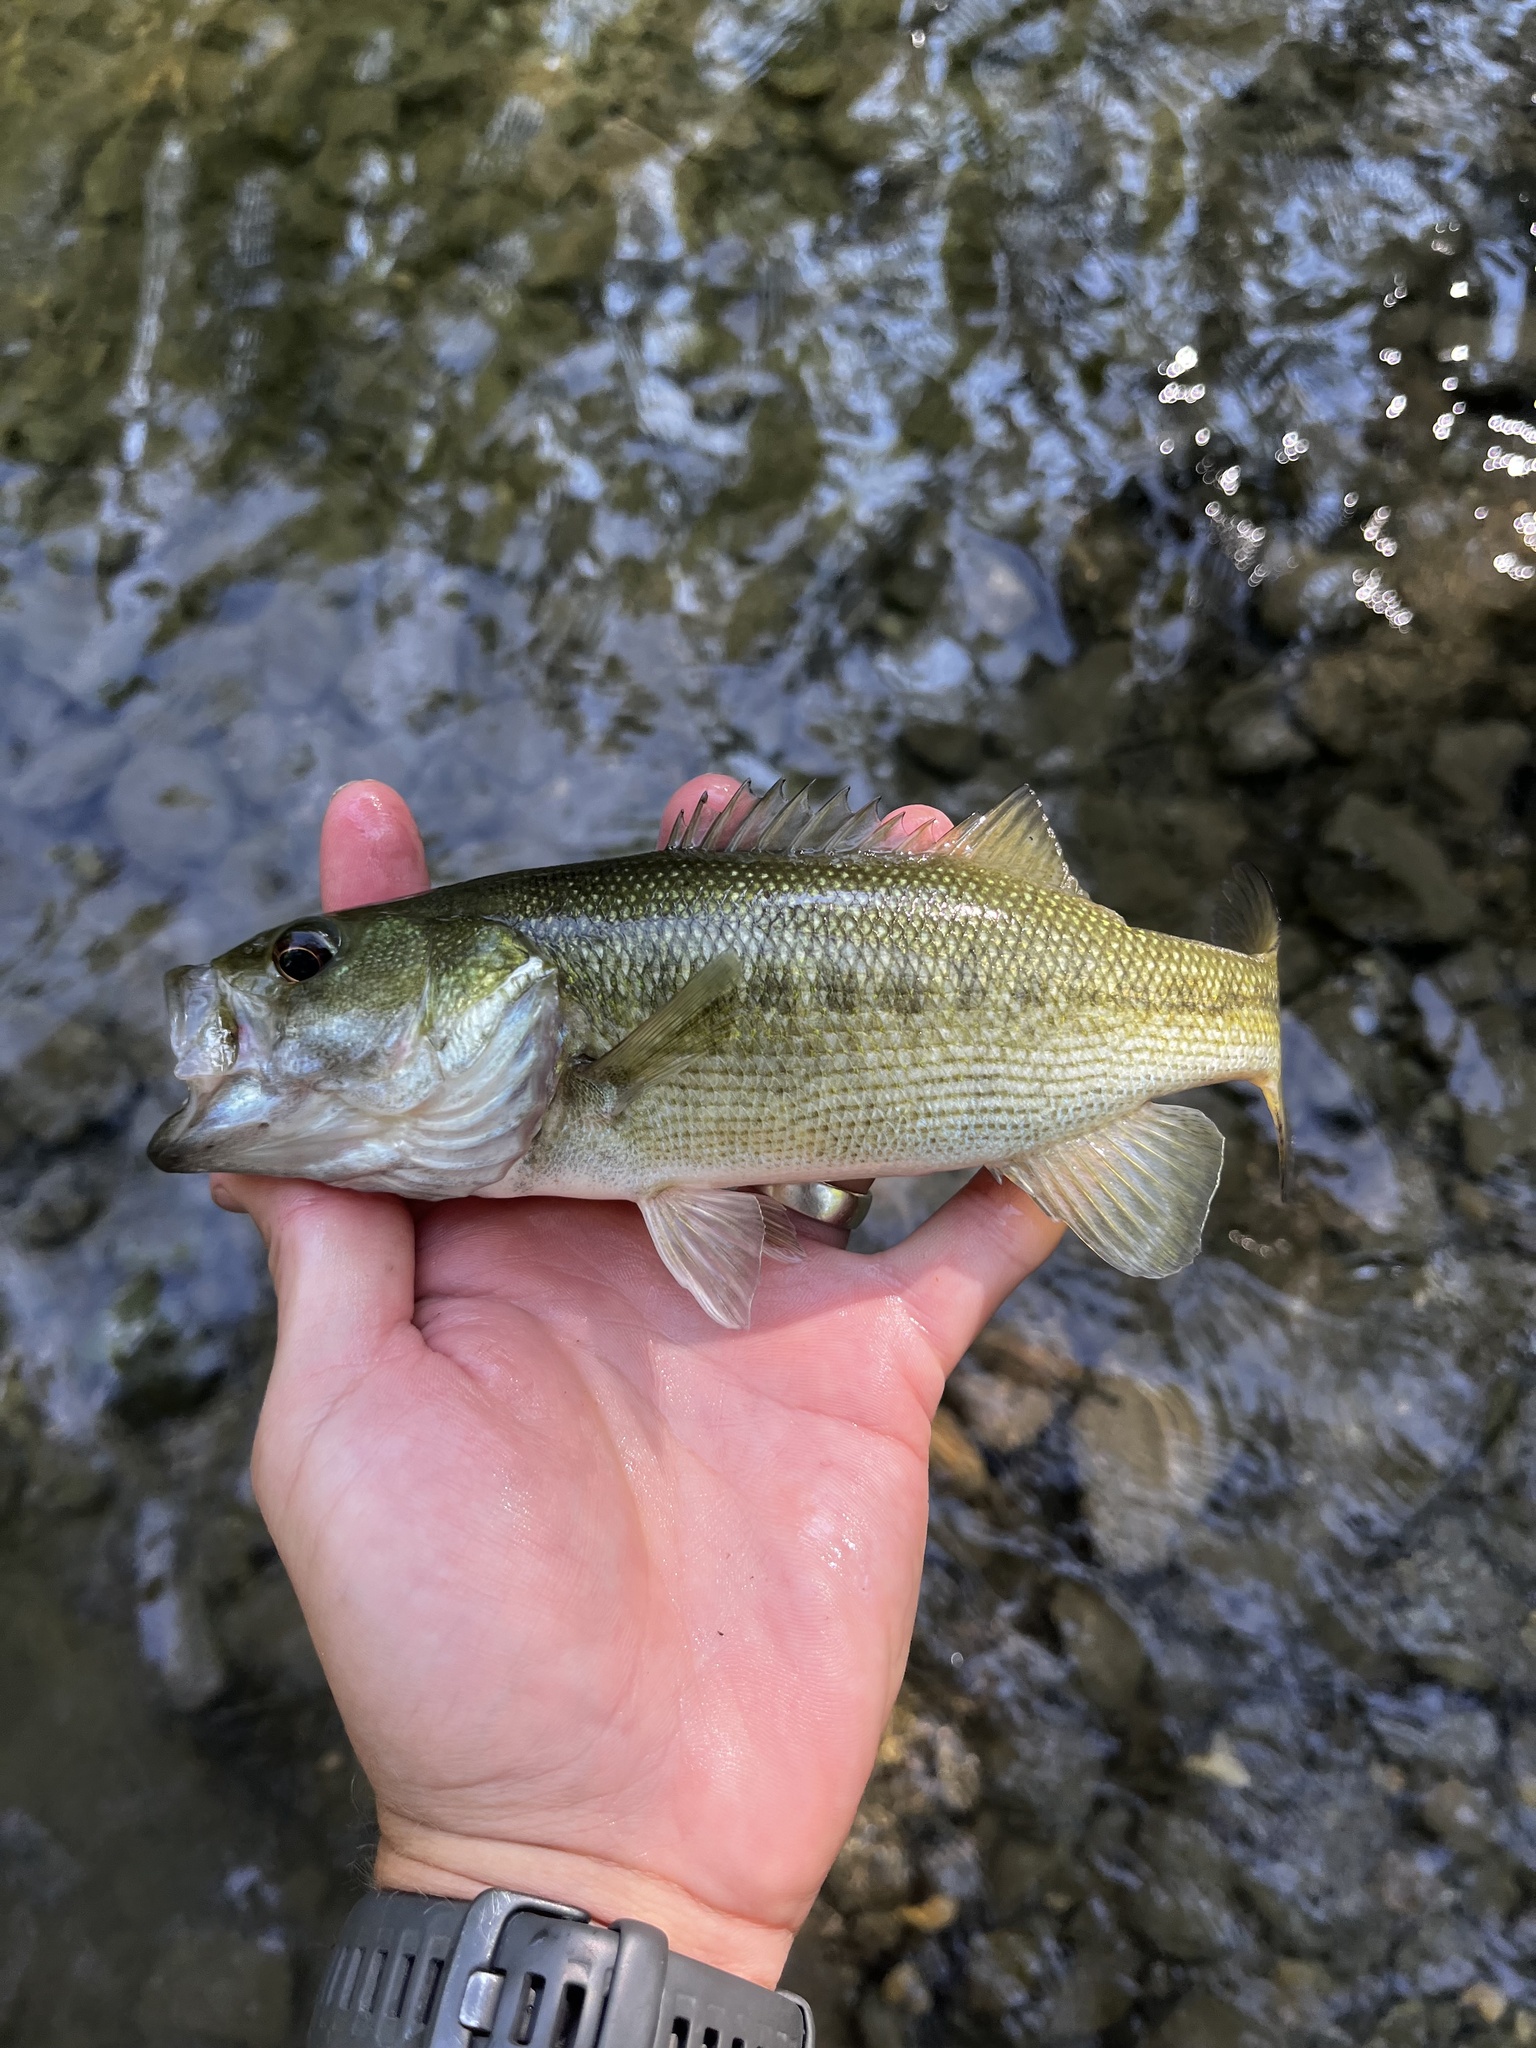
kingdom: Animalia
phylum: Chordata
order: Perciformes
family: Centrarchidae
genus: Micropterus
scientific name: Micropterus treculii
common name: Guadalupe bass
